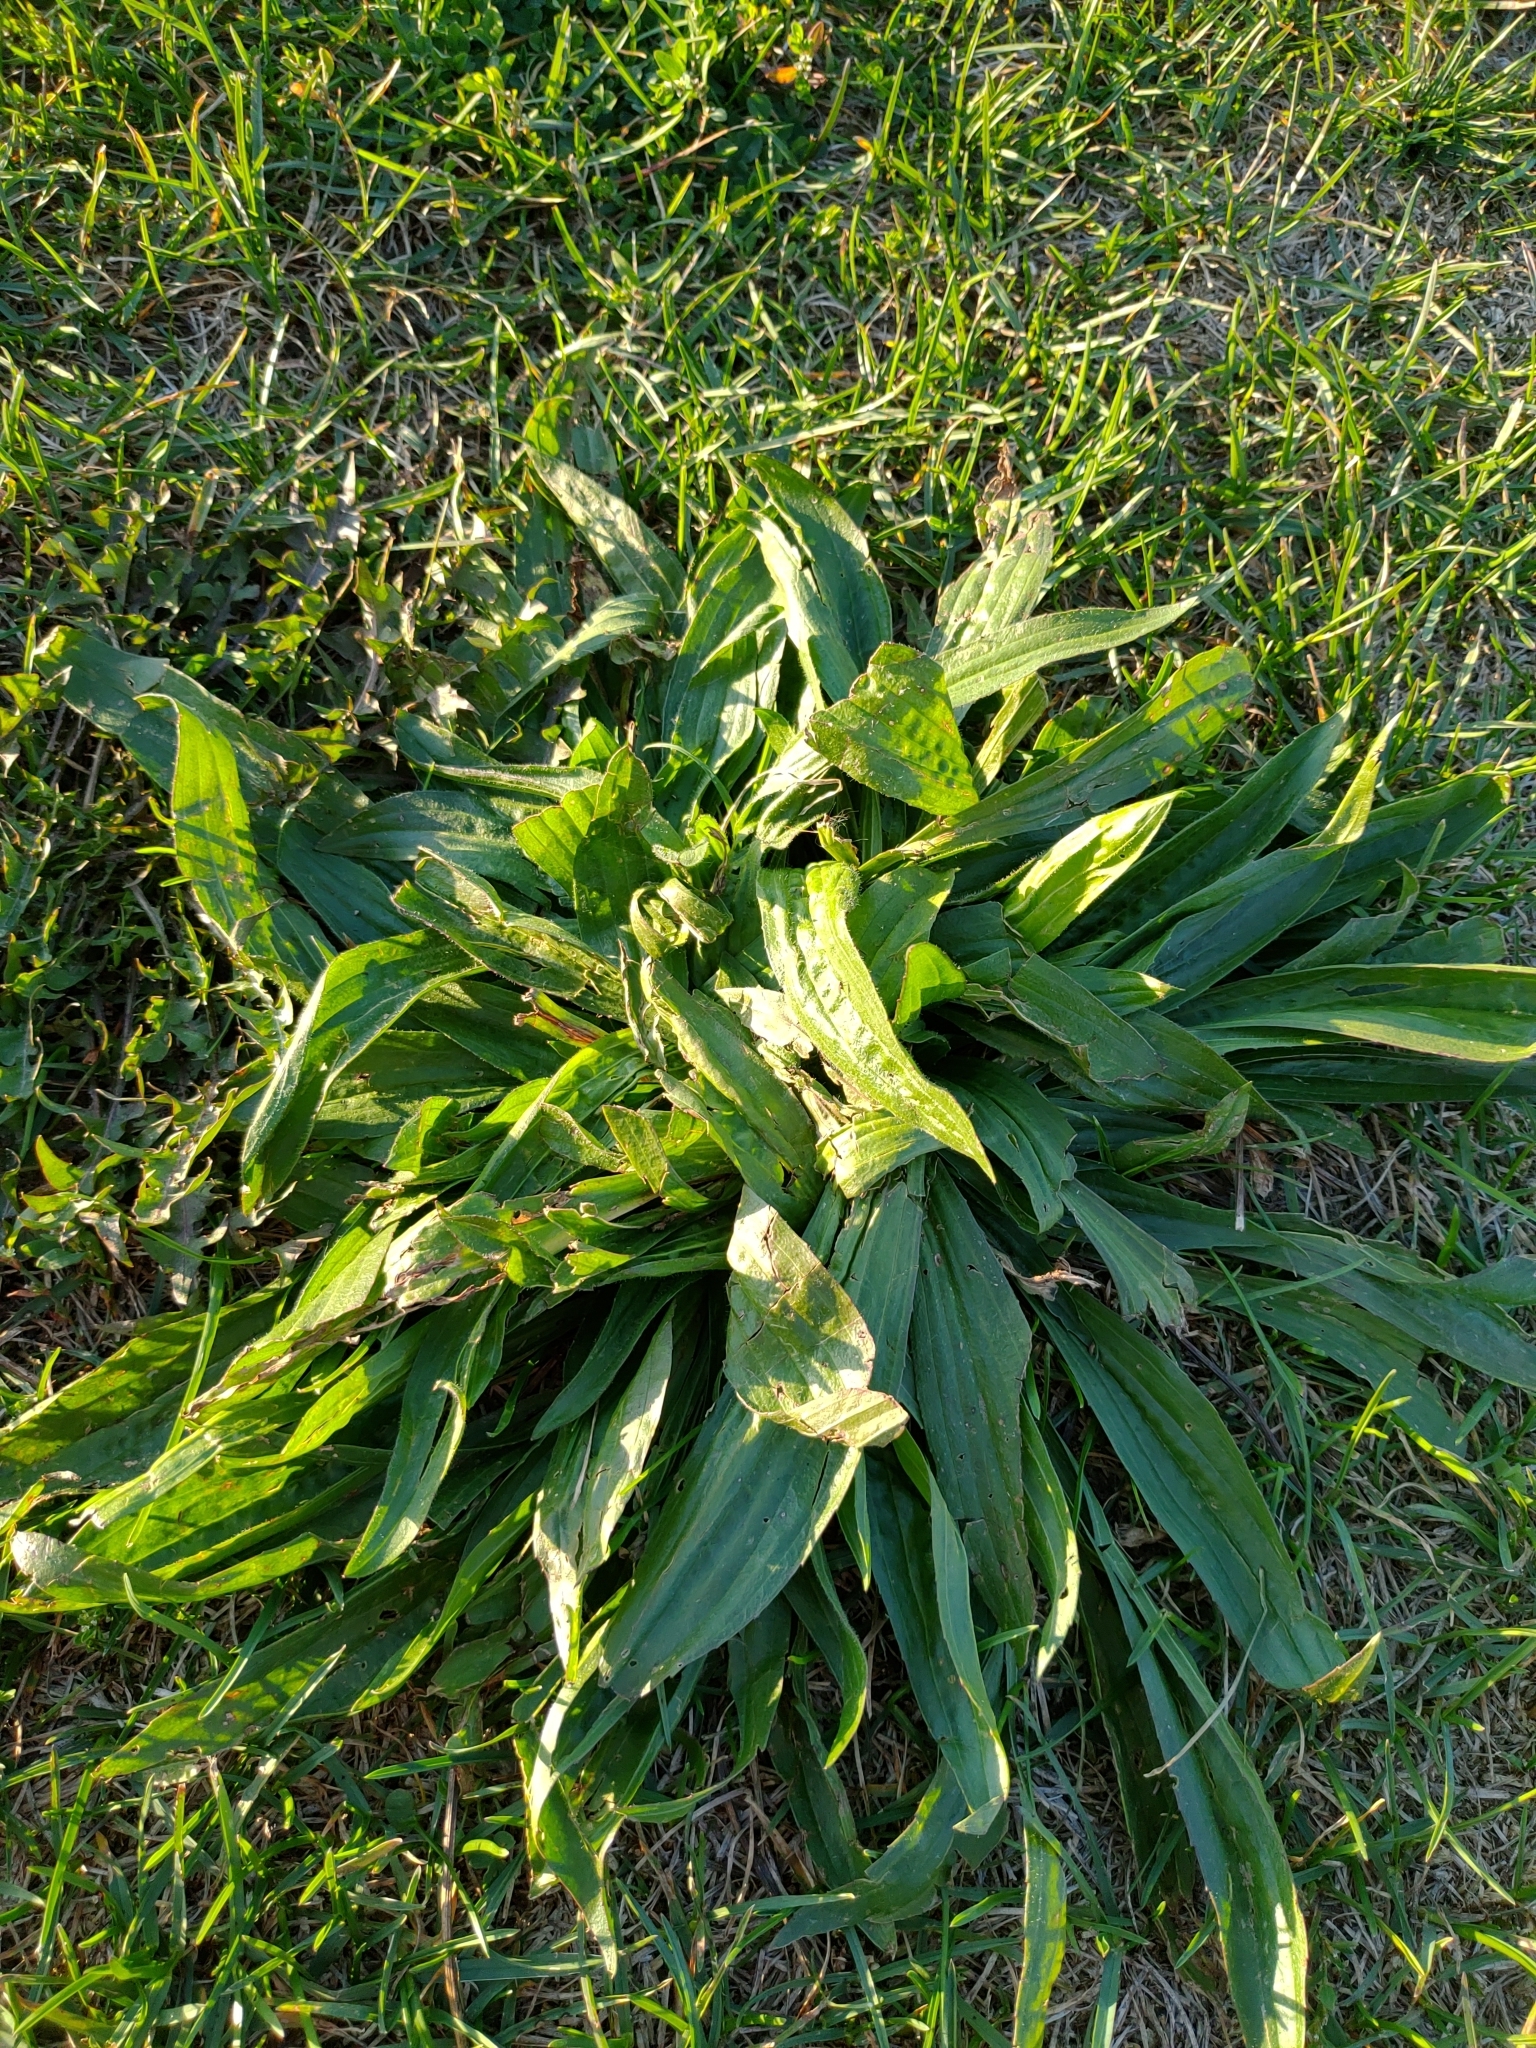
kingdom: Plantae
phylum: Tracheophyta
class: Magnoliopsida
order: Lamiales
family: Plantaginaceae
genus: Plantago
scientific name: Plantago lanceolata
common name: Ribwort plantain
